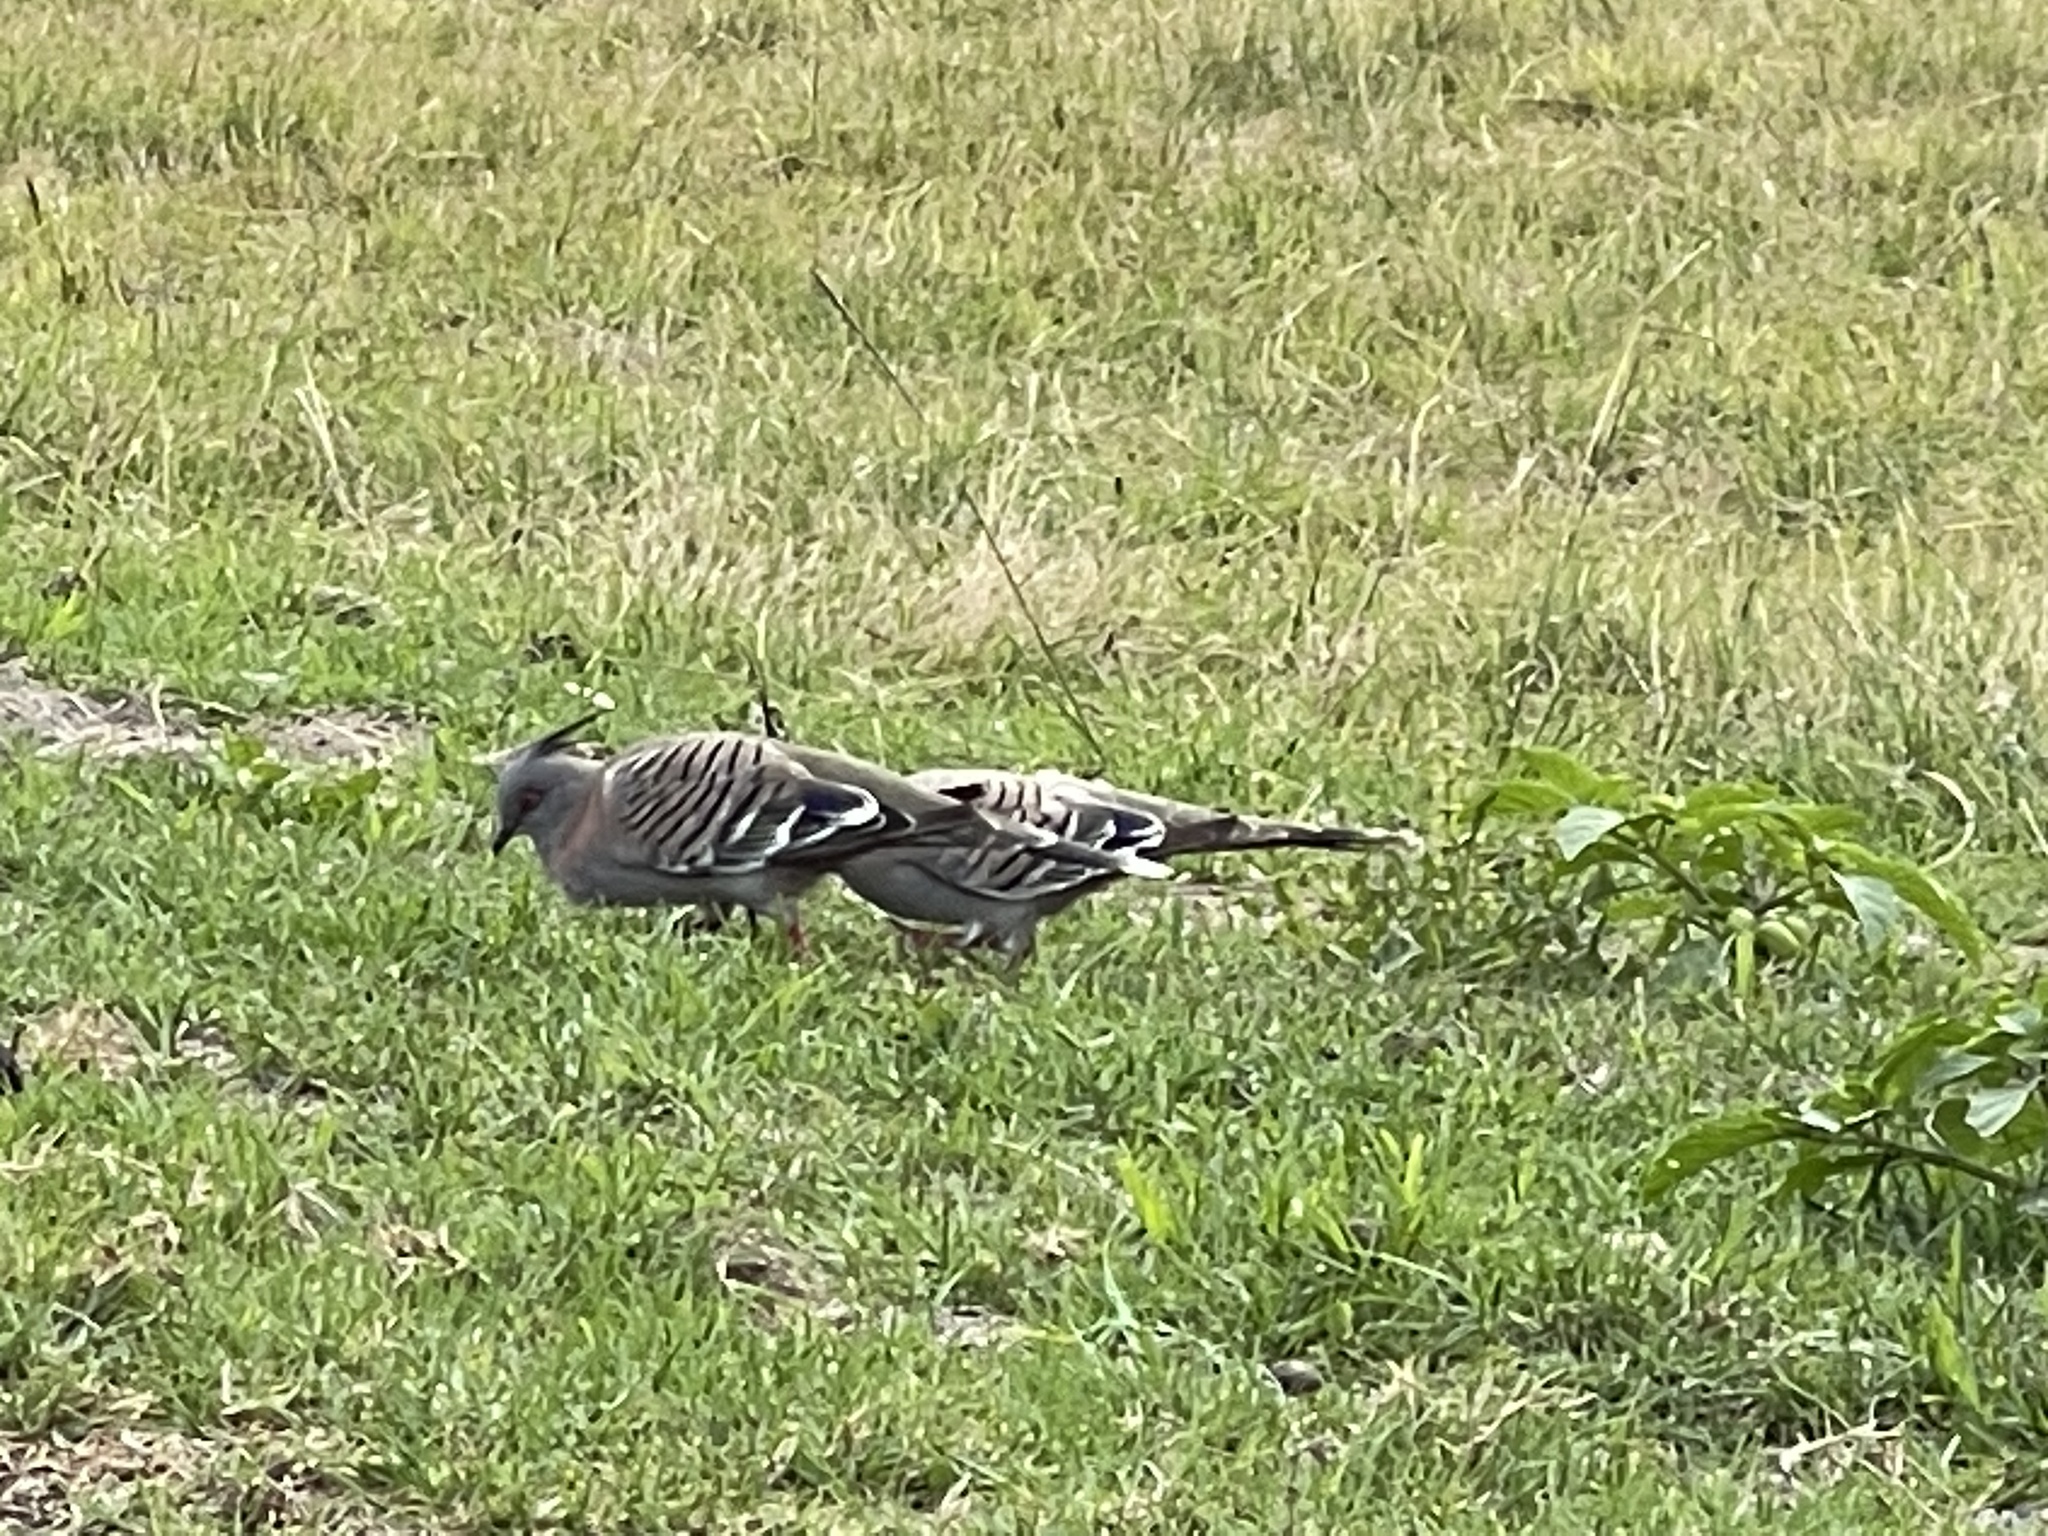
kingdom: Animalia
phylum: Chordata
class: Aves
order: Columbiformes
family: Columbidae
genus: Ocyphaps
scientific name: Ocyphaps lophotes
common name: Crested pigeon
